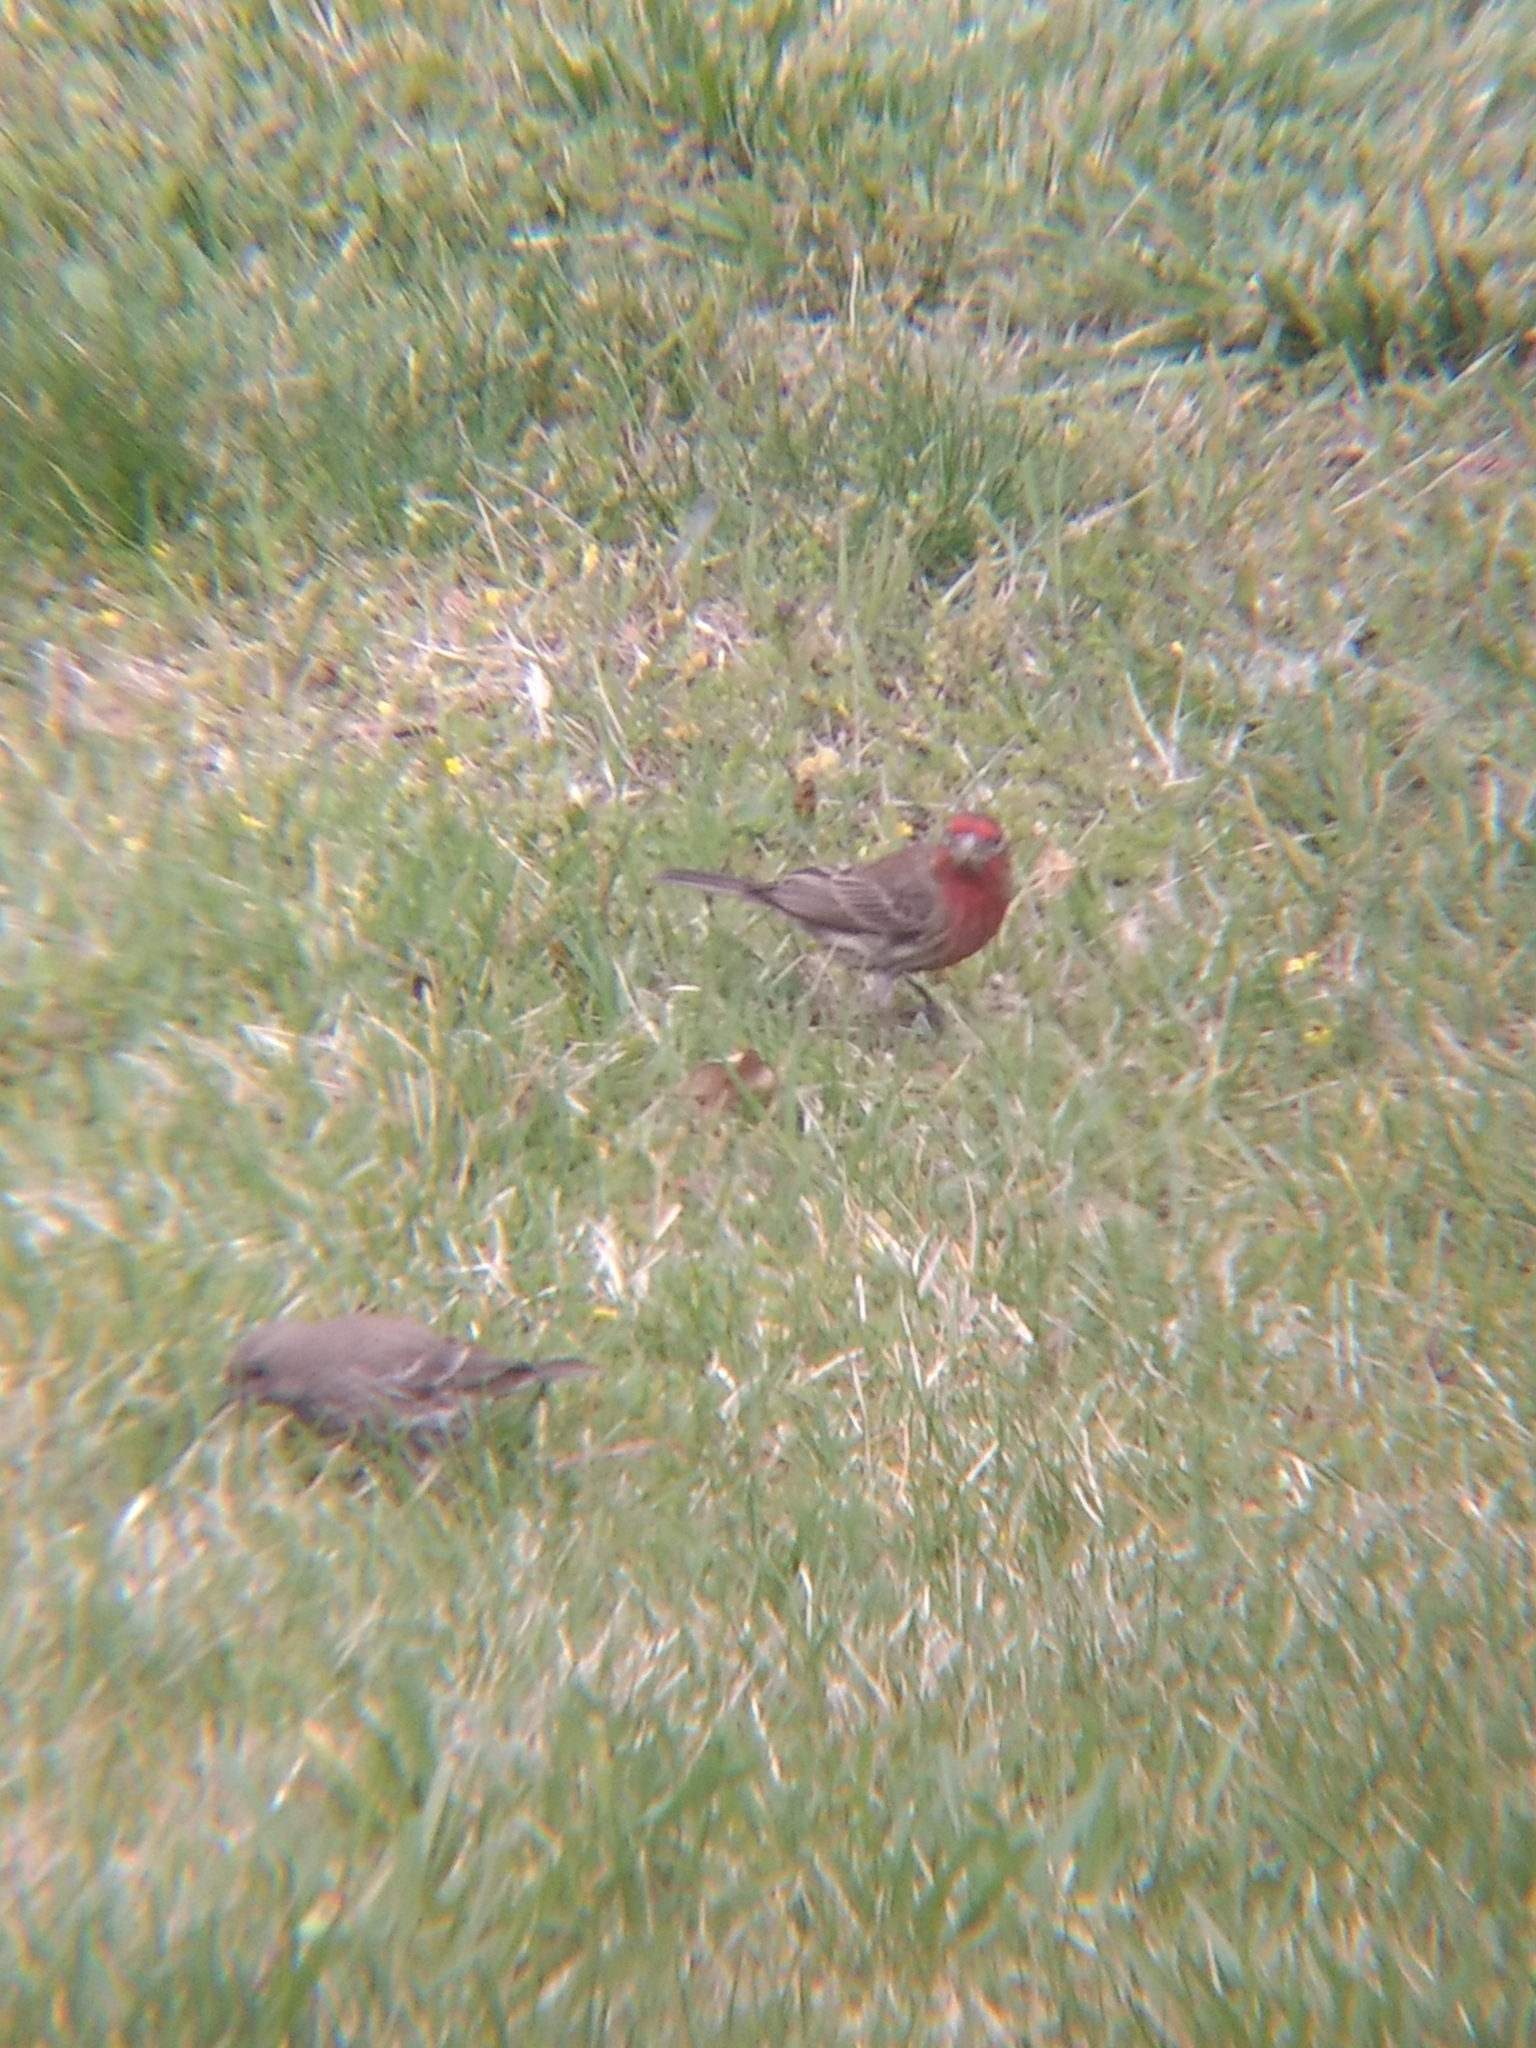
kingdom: Animalia
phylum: Chordata
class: Aves
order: Passeriformes
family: Fringillidae
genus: Haemorhous
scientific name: Haemorhous mexicanus
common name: House finch
